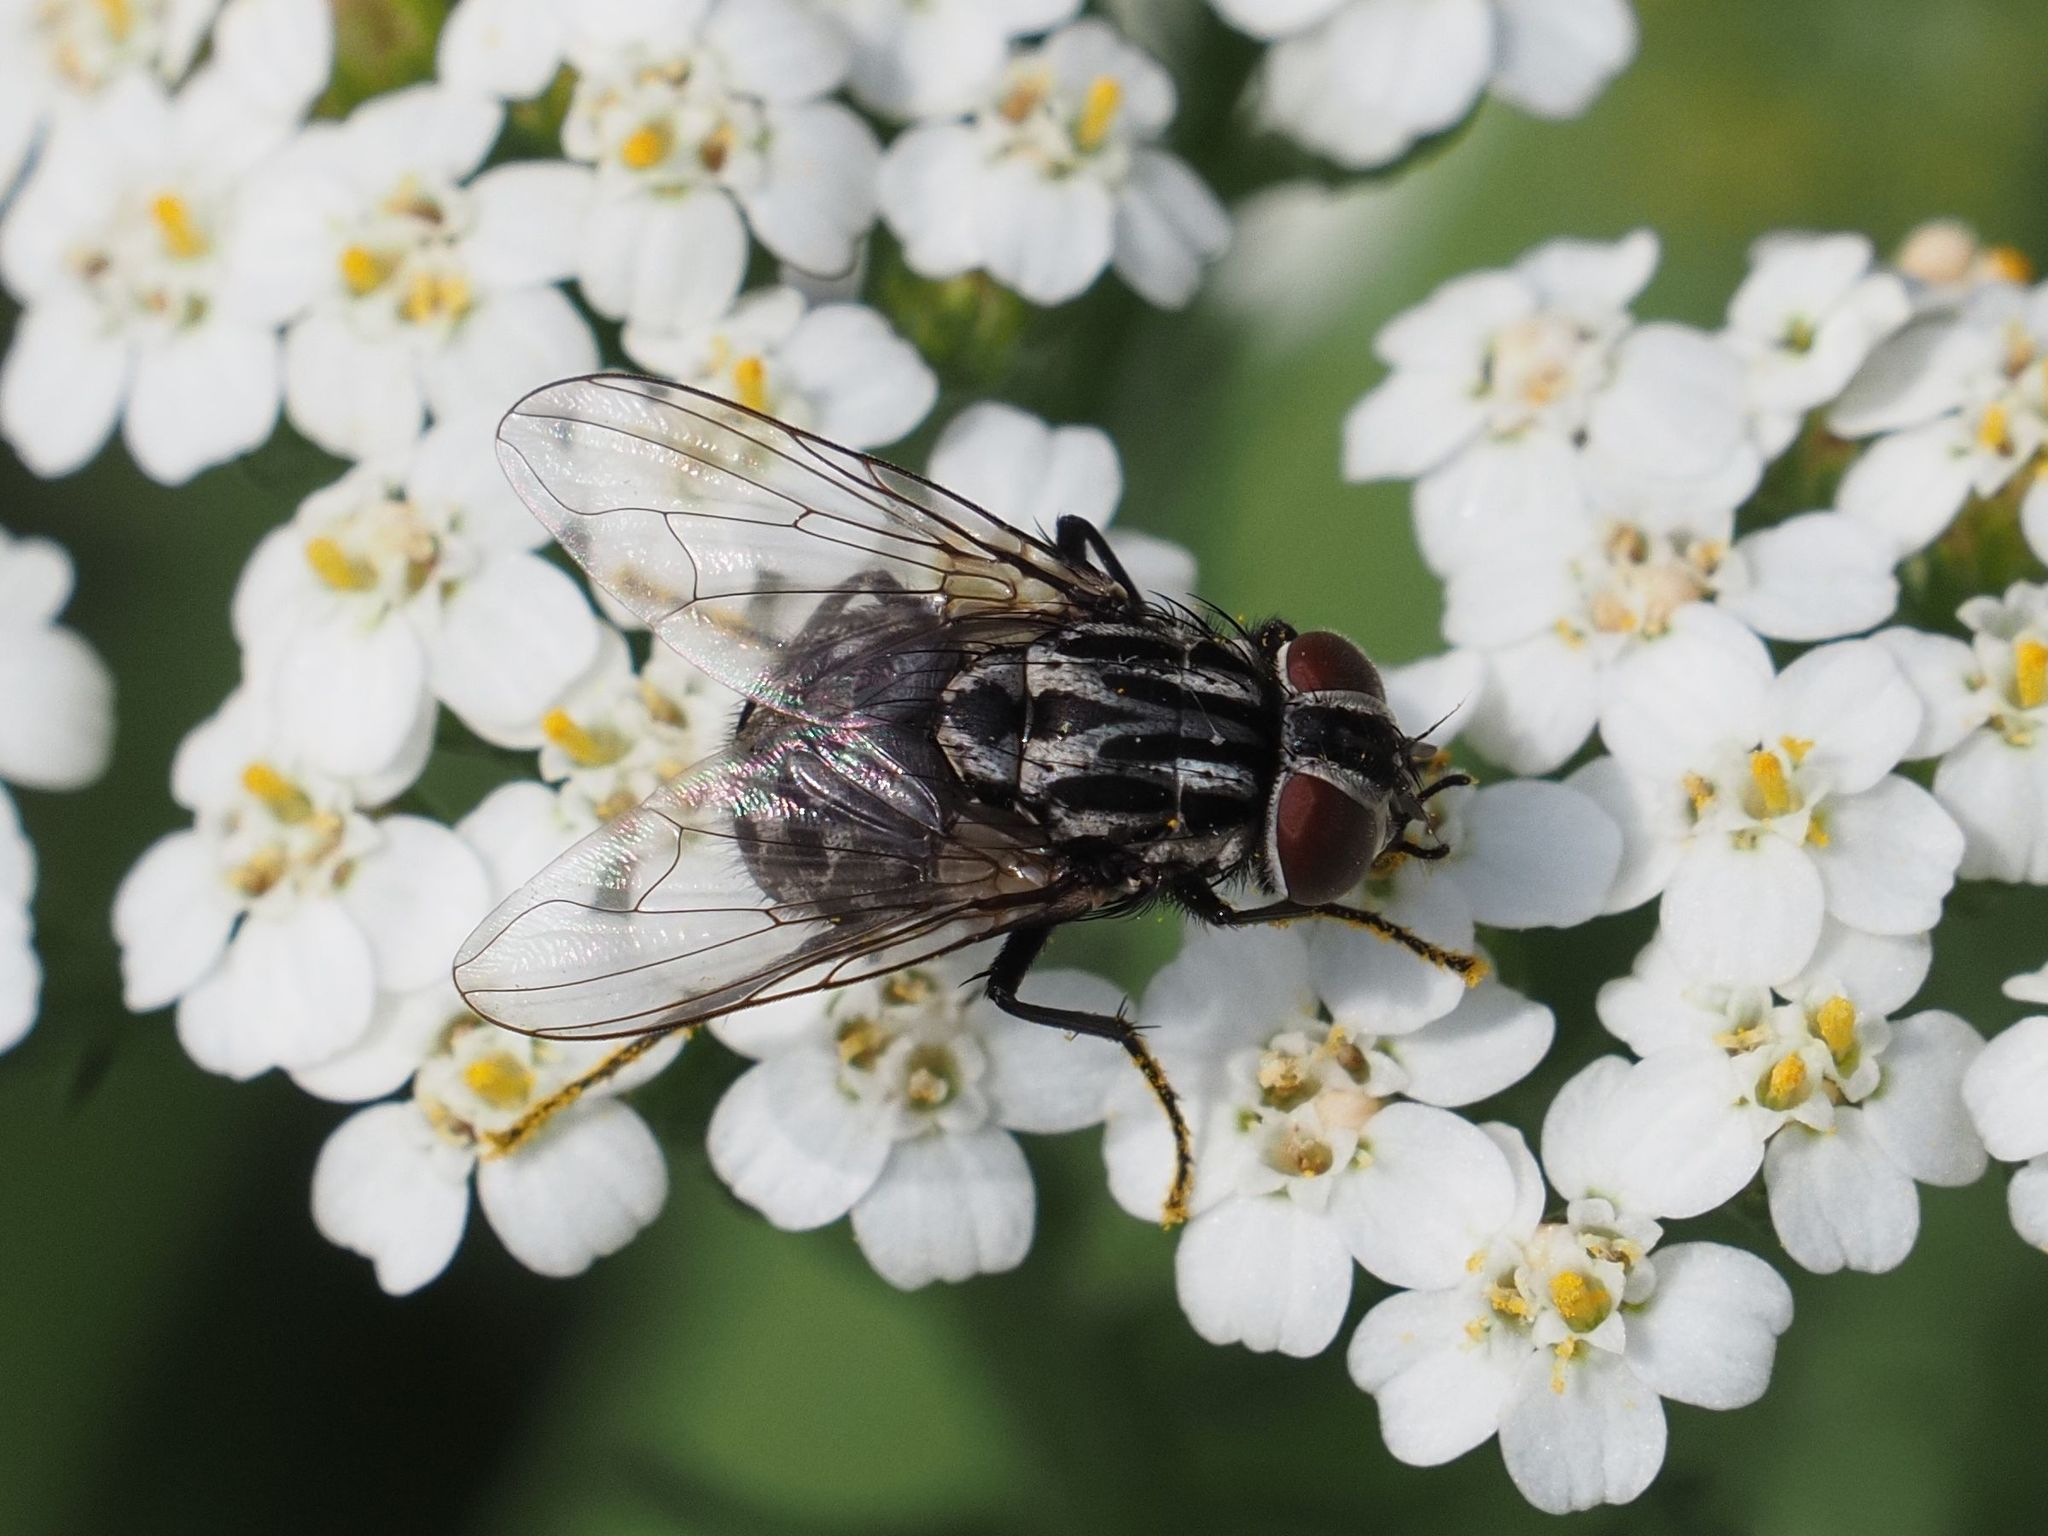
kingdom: Animalia
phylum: Arthropoda
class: Insecta
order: Diptera
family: Muscidae
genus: Graphomya
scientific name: Graphomya maculata
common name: Muscid fly
